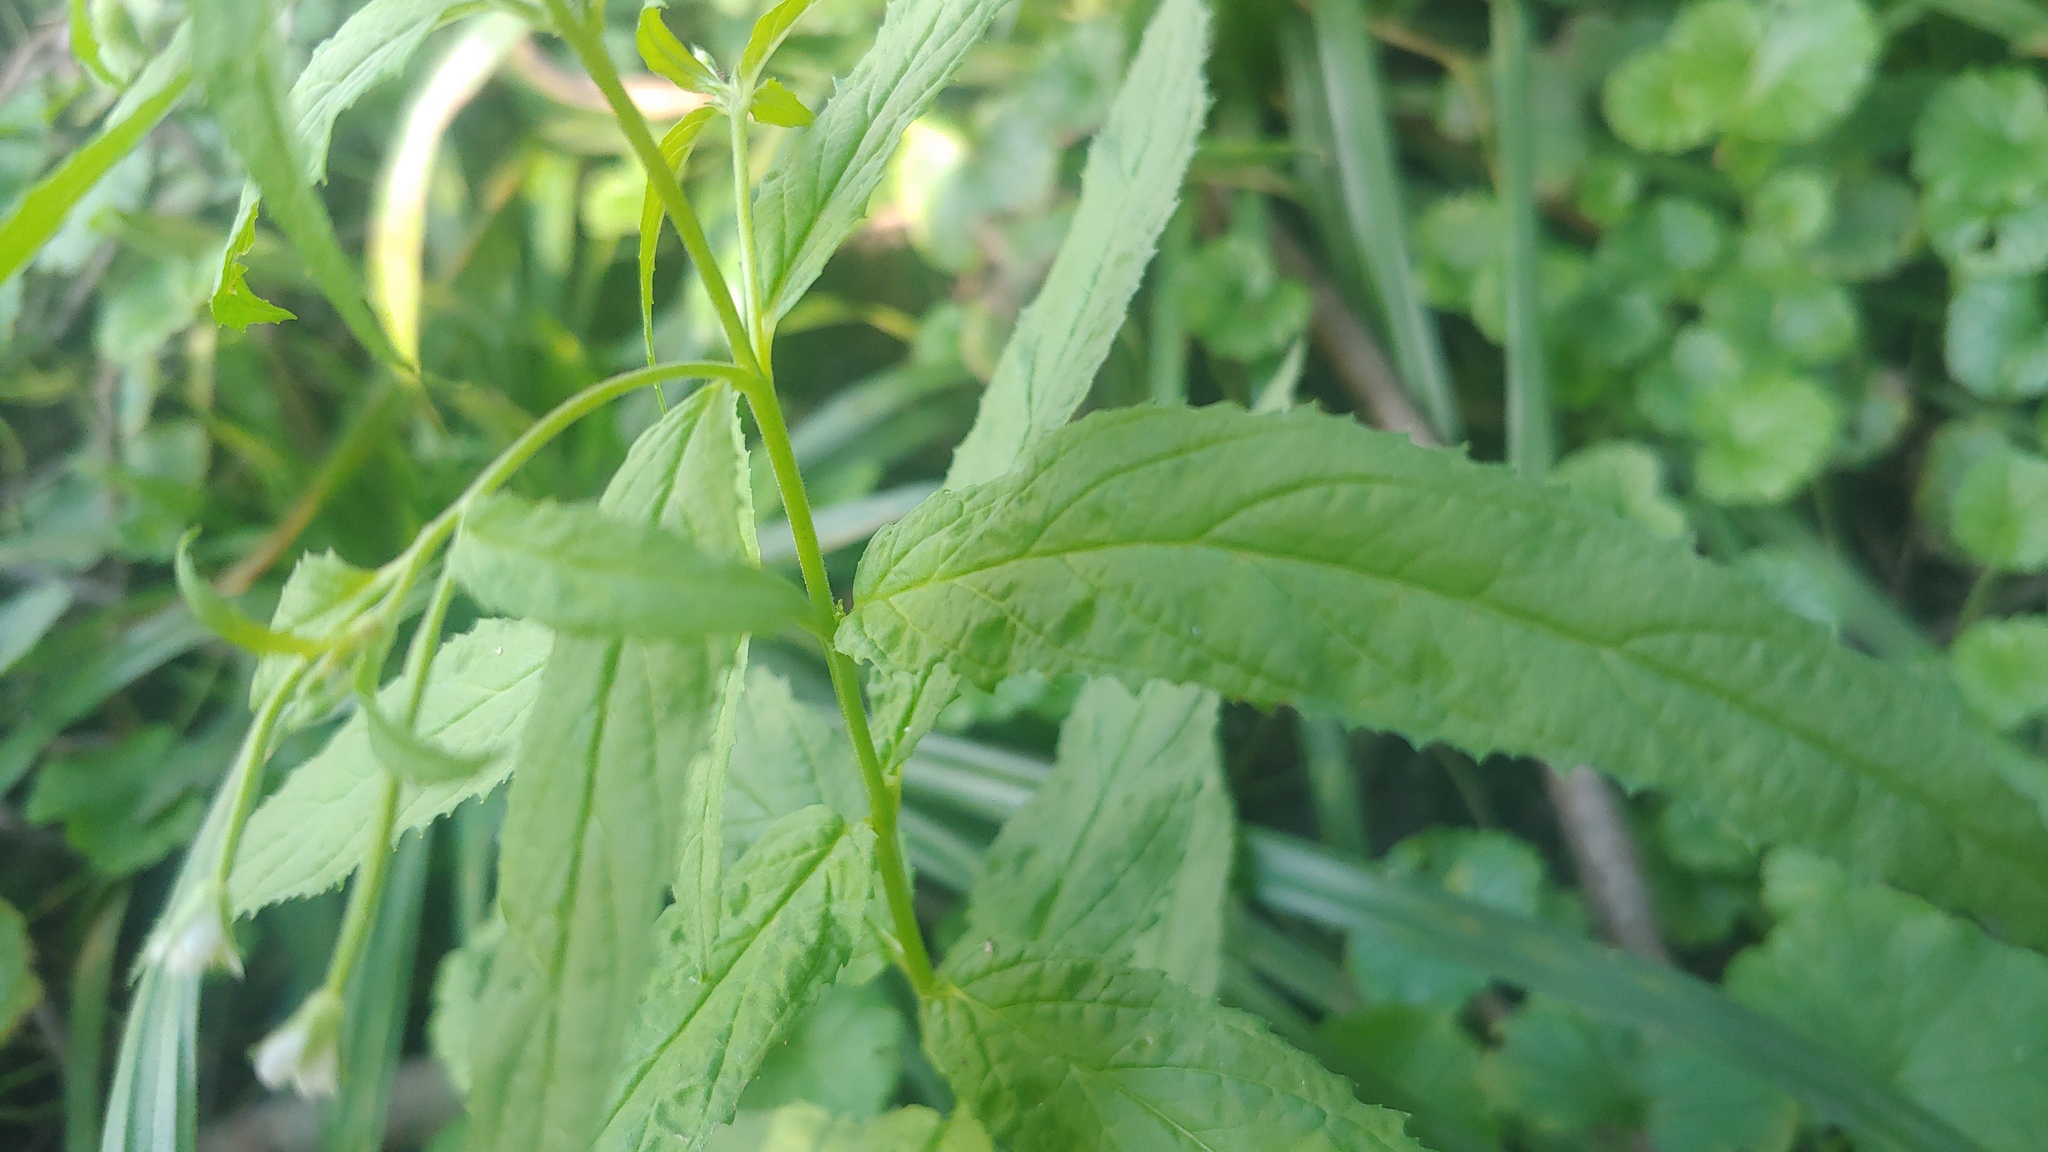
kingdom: Plantae
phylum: Tracheophyta
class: Magnoliopsida
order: Myrtales
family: Onagraceae
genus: Epilobium
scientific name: Epilobium coloratum
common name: Bronze willowherb
